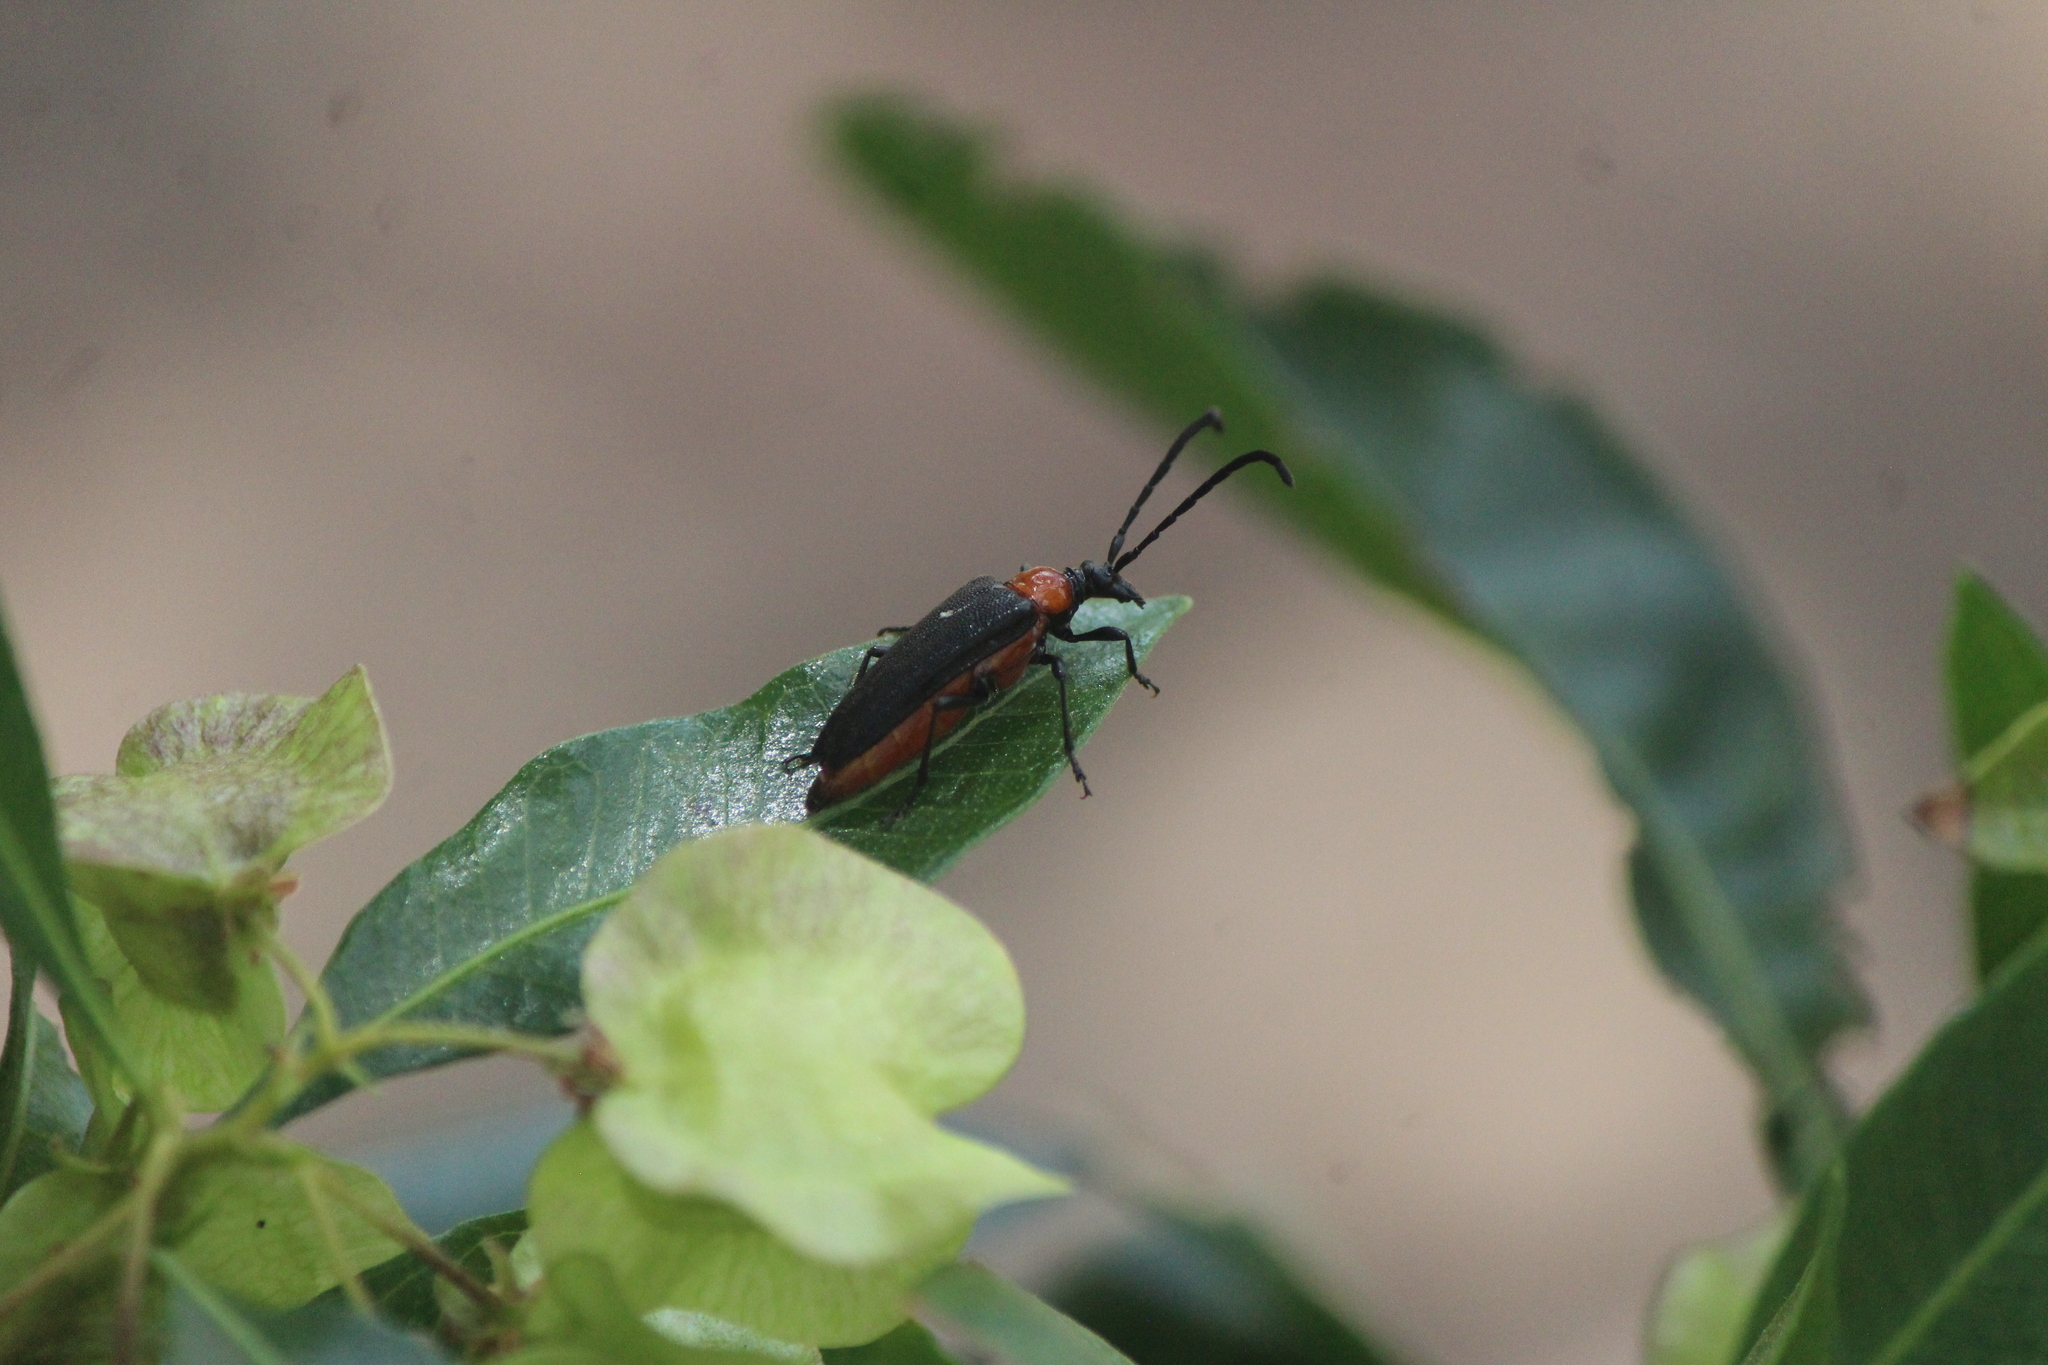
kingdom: Animalia
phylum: Arthropoda
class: Insecta
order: Coleoptera
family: Cerambycidae
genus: Cyphonotida
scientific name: Cyphonotida rostrata
